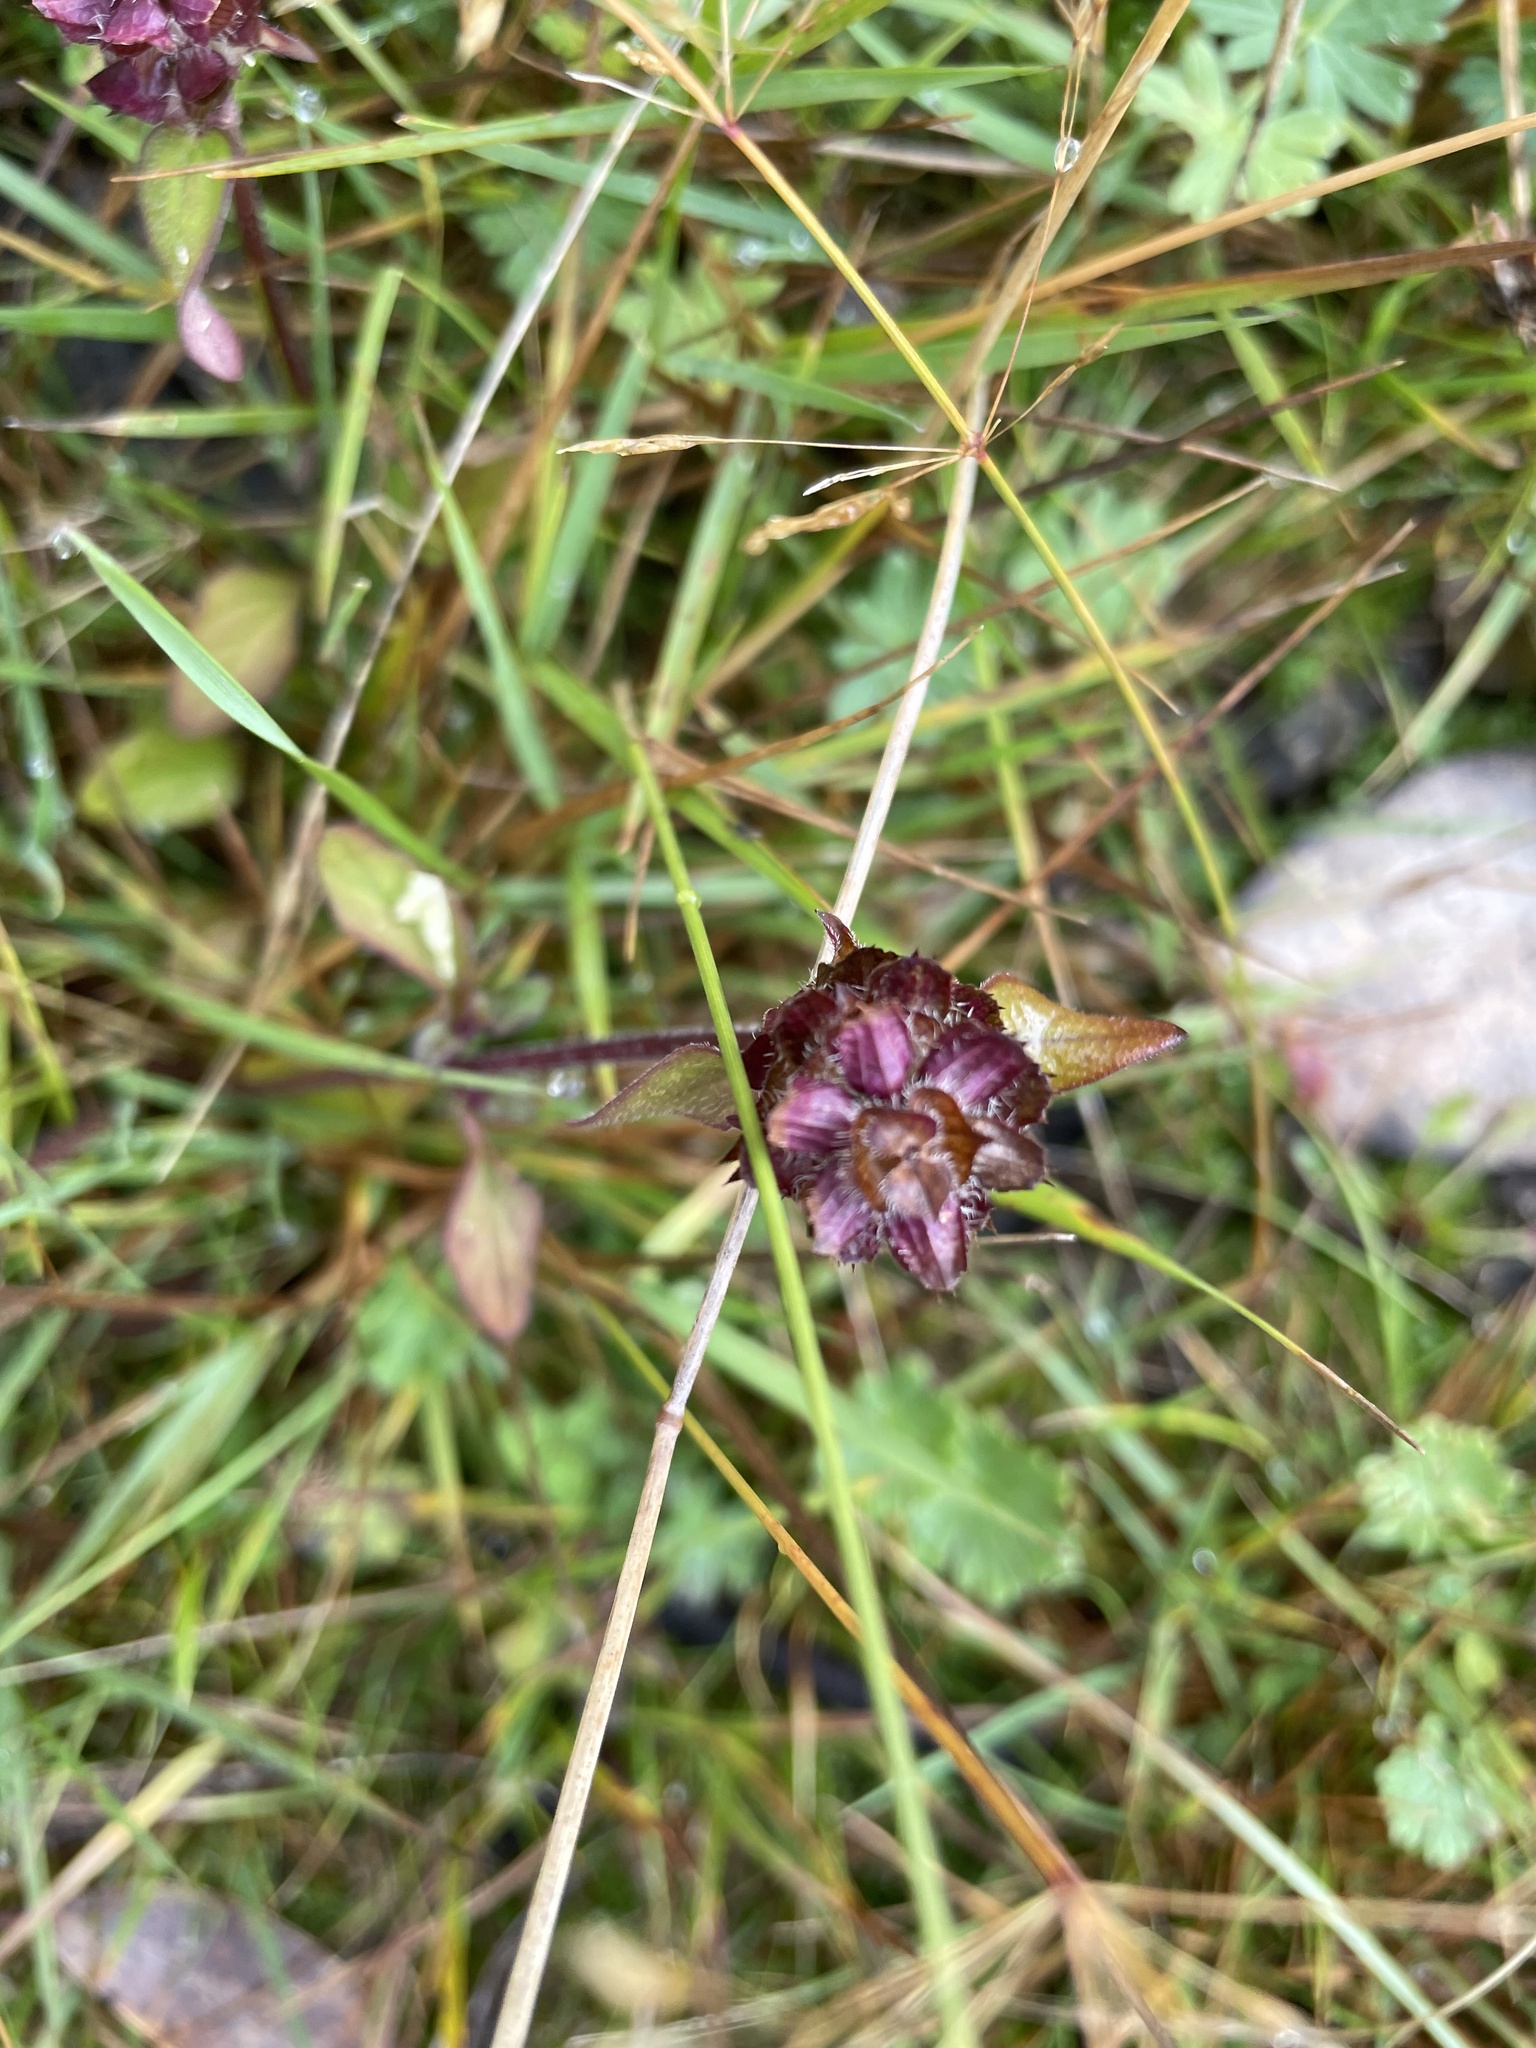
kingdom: Plantae
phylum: Tracheophyta
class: Magnoliopsida
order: Lamiales
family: Lamiaceae
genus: Prunella
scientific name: Prunella vulgaris
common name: Heal-all
